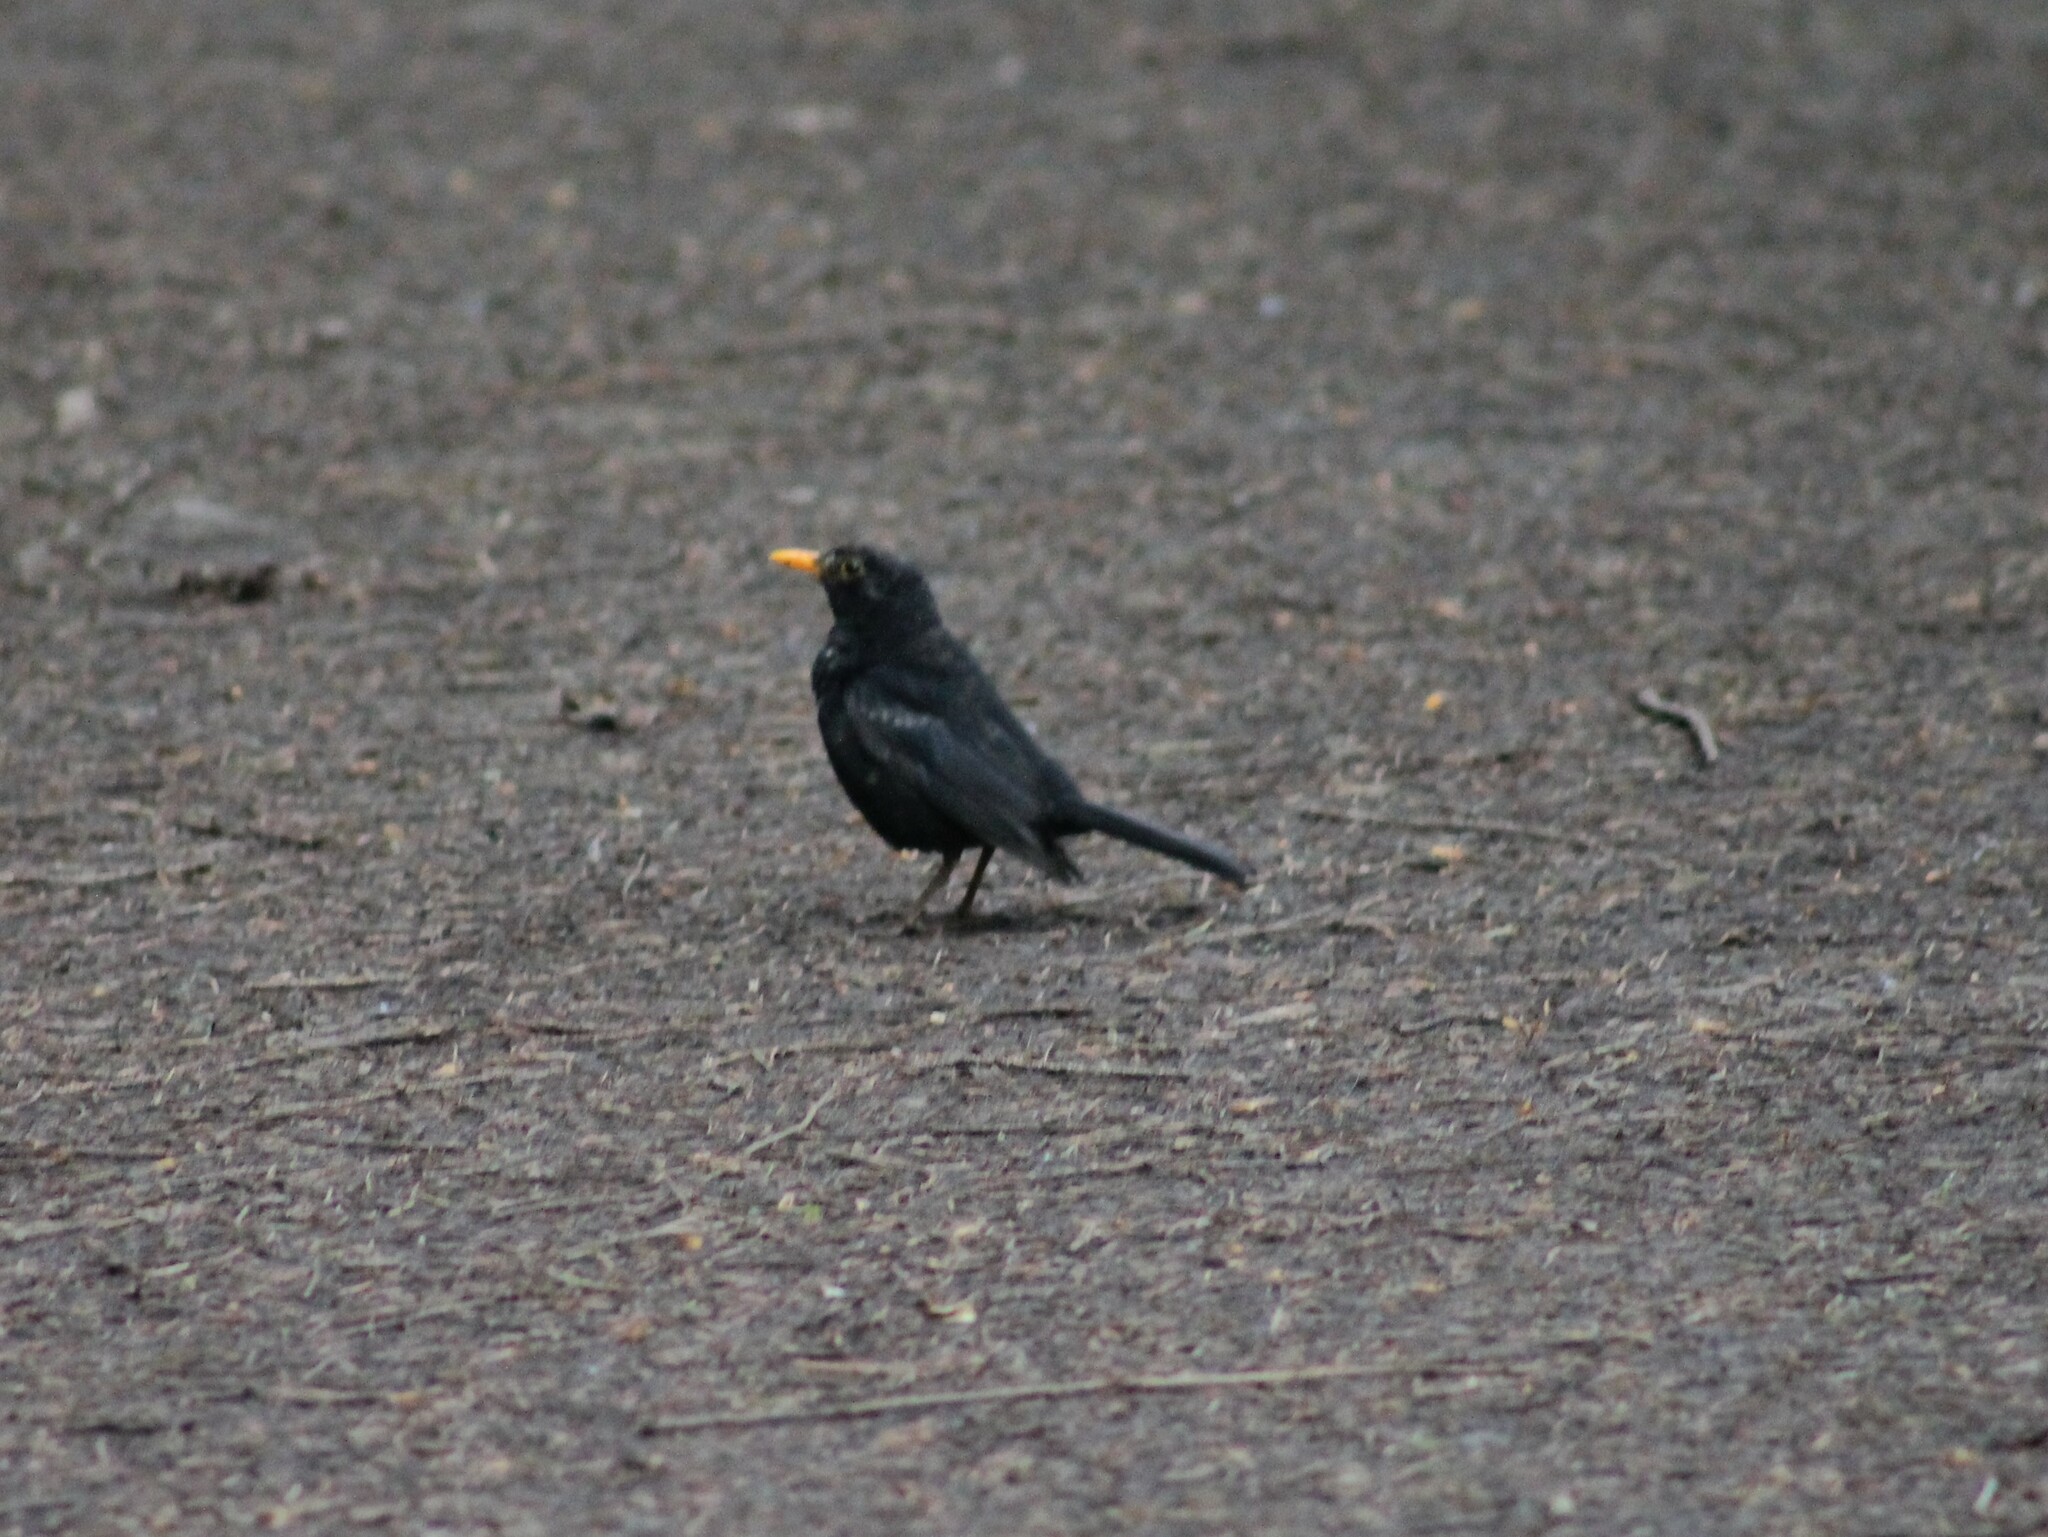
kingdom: Animalia
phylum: Chordata
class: Aves
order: Passeriformes
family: Turdidae
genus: Turdus
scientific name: Turdus merula
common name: Common blackbird
